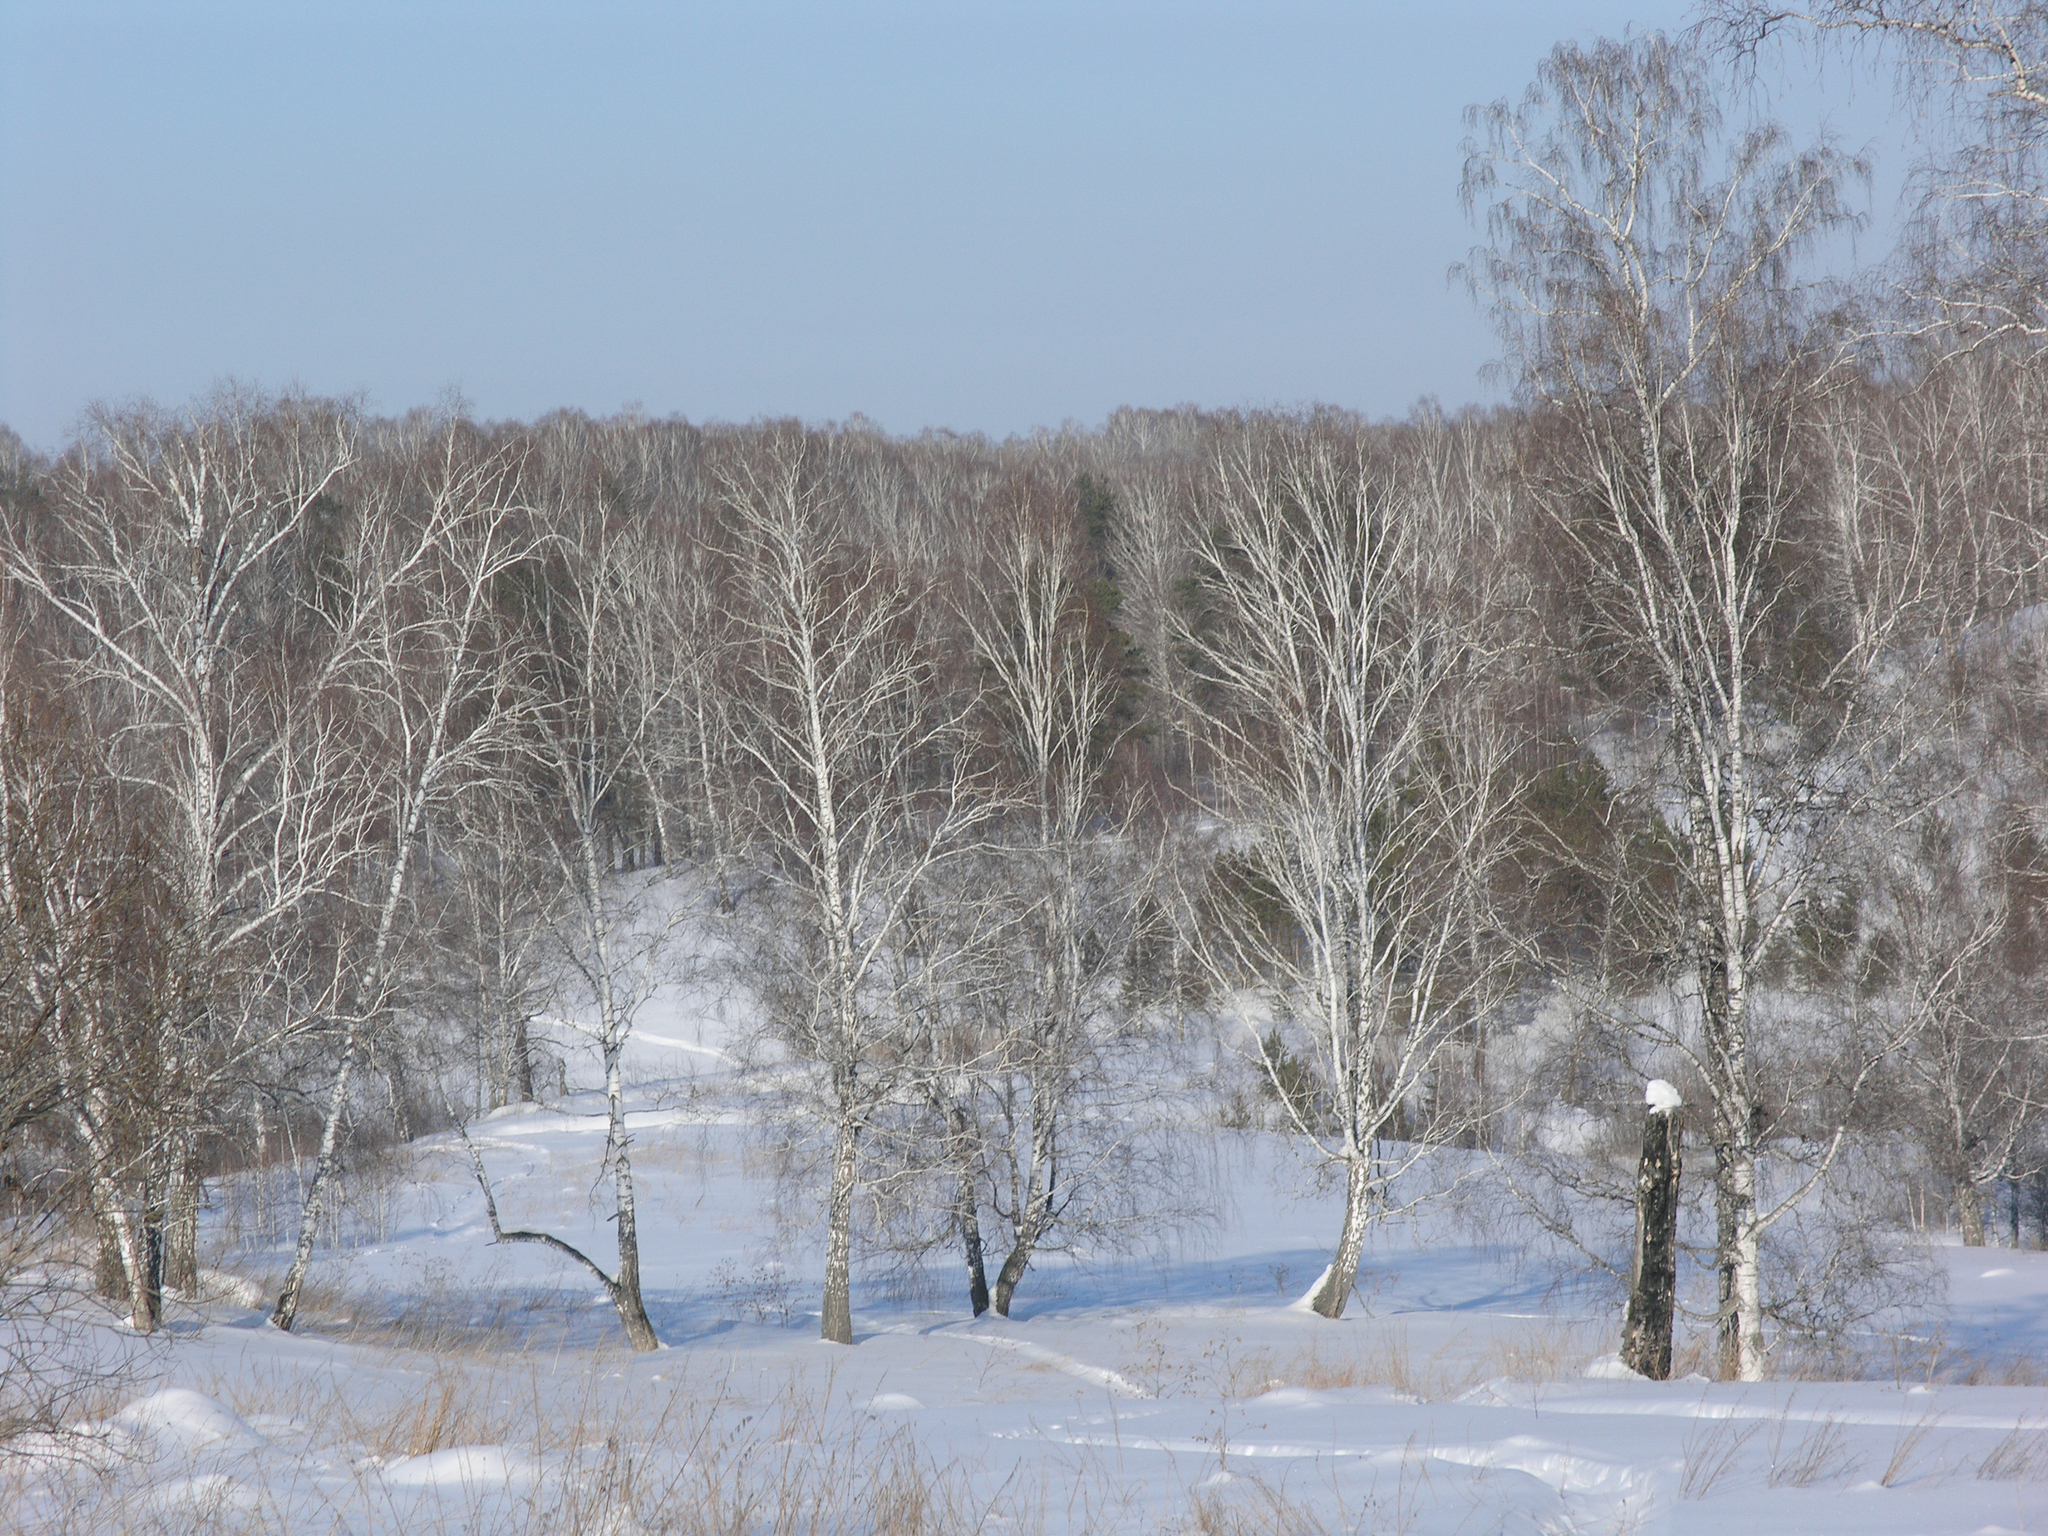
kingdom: Plantae
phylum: Tracheophyta
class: Magnoliopsida
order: Fagales
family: Betulaceae
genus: Betula
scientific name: Betula pendula
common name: Silver birch
